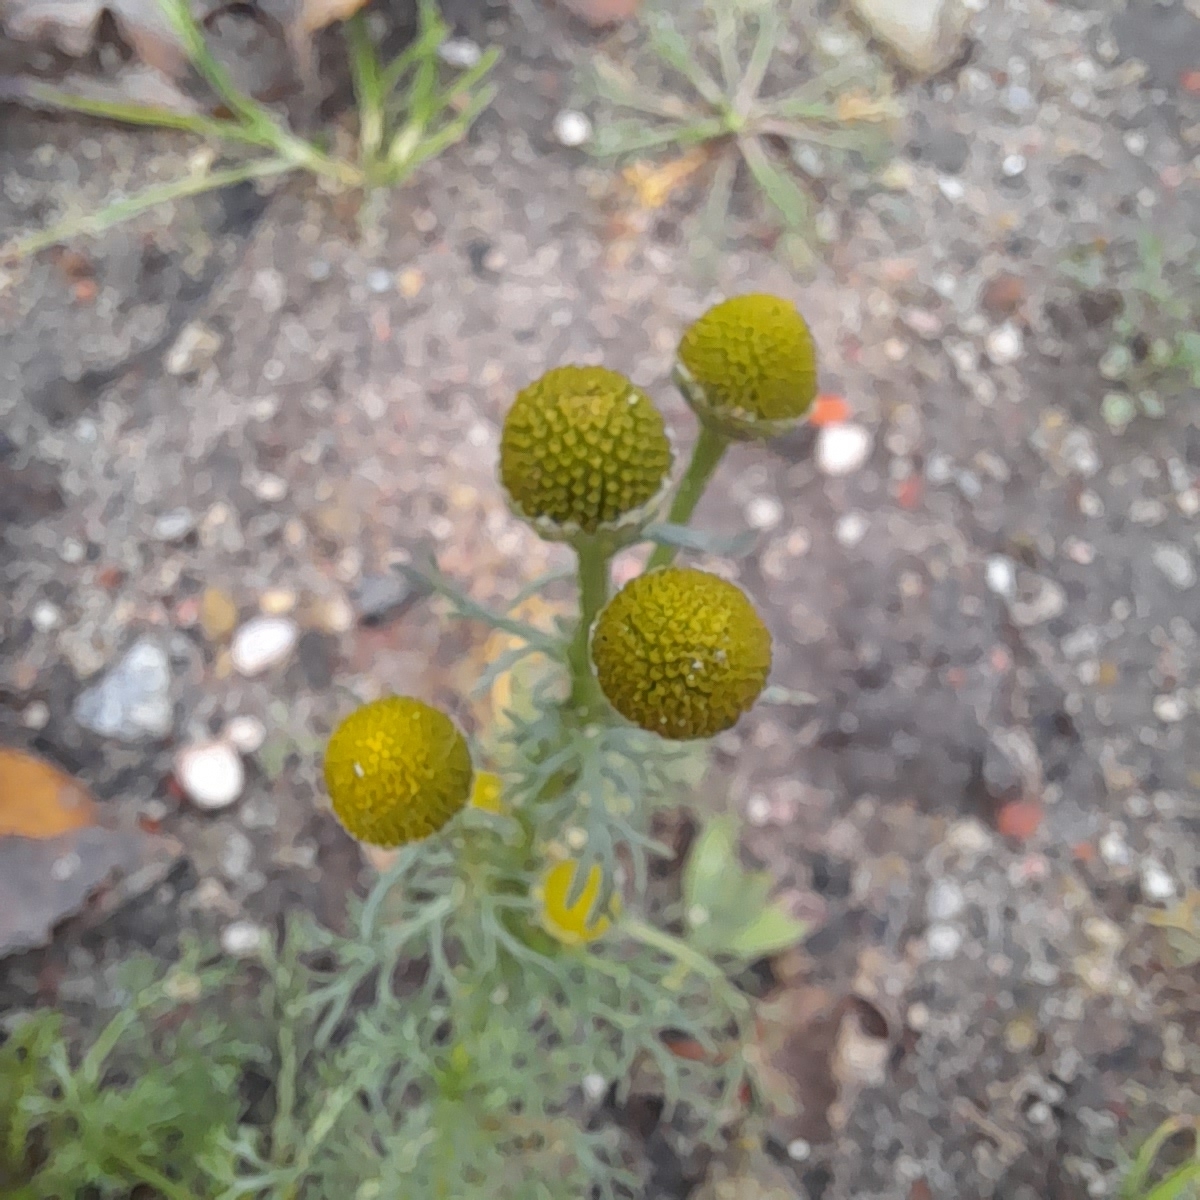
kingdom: Plantae
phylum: Tracheophyta
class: Magnoliopsida
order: Asterales
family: Asteraceae
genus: Matricaria
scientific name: Matricaria discoidea
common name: Disc mayweed
